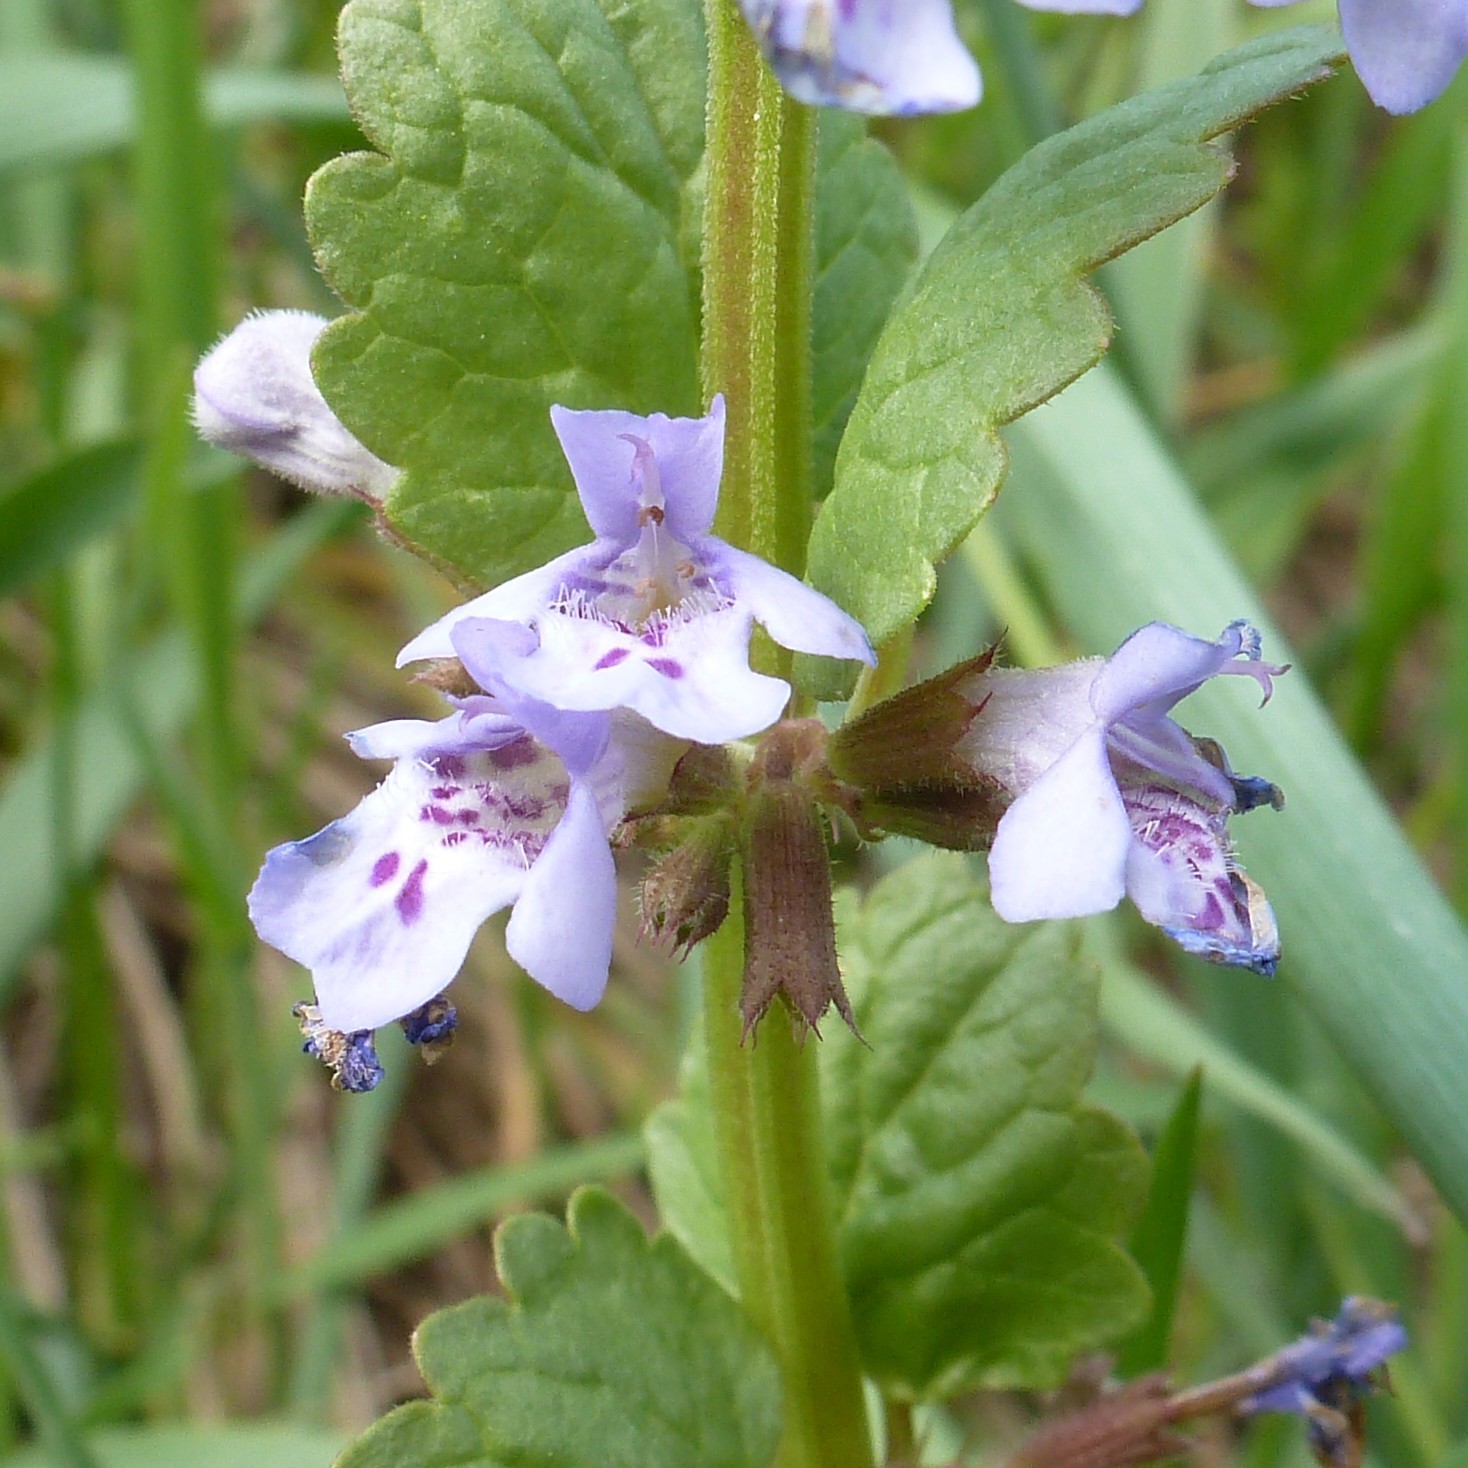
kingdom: Plantae
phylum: Tracheophyta
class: Magnoliopsida
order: Lamiales
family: Lamiaceae
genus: Glechoma
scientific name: Glechoma hederacea
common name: Ground ivy
